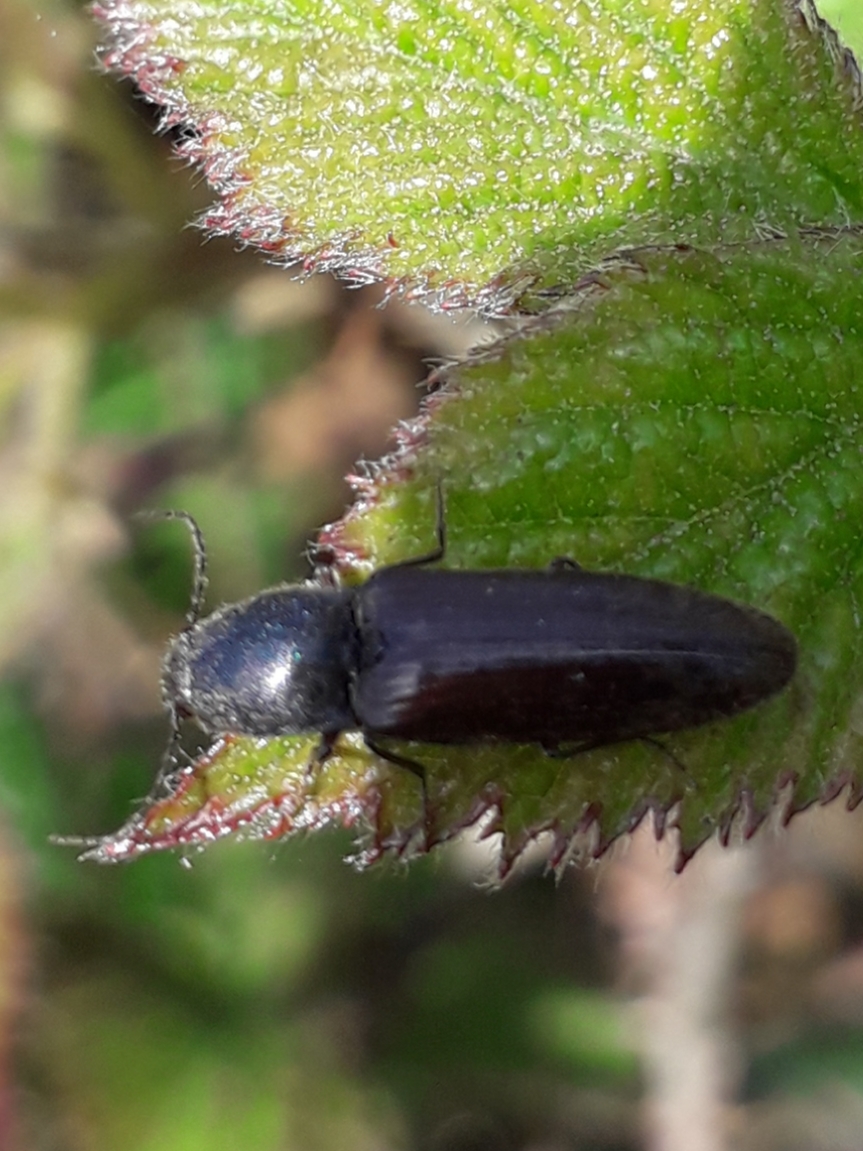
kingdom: Animalia
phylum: Arthropoda
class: Insecta
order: Coleoptera
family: Elateridae
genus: Athous
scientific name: Athous haemorrhoidalis
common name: Red-brown click beetle
